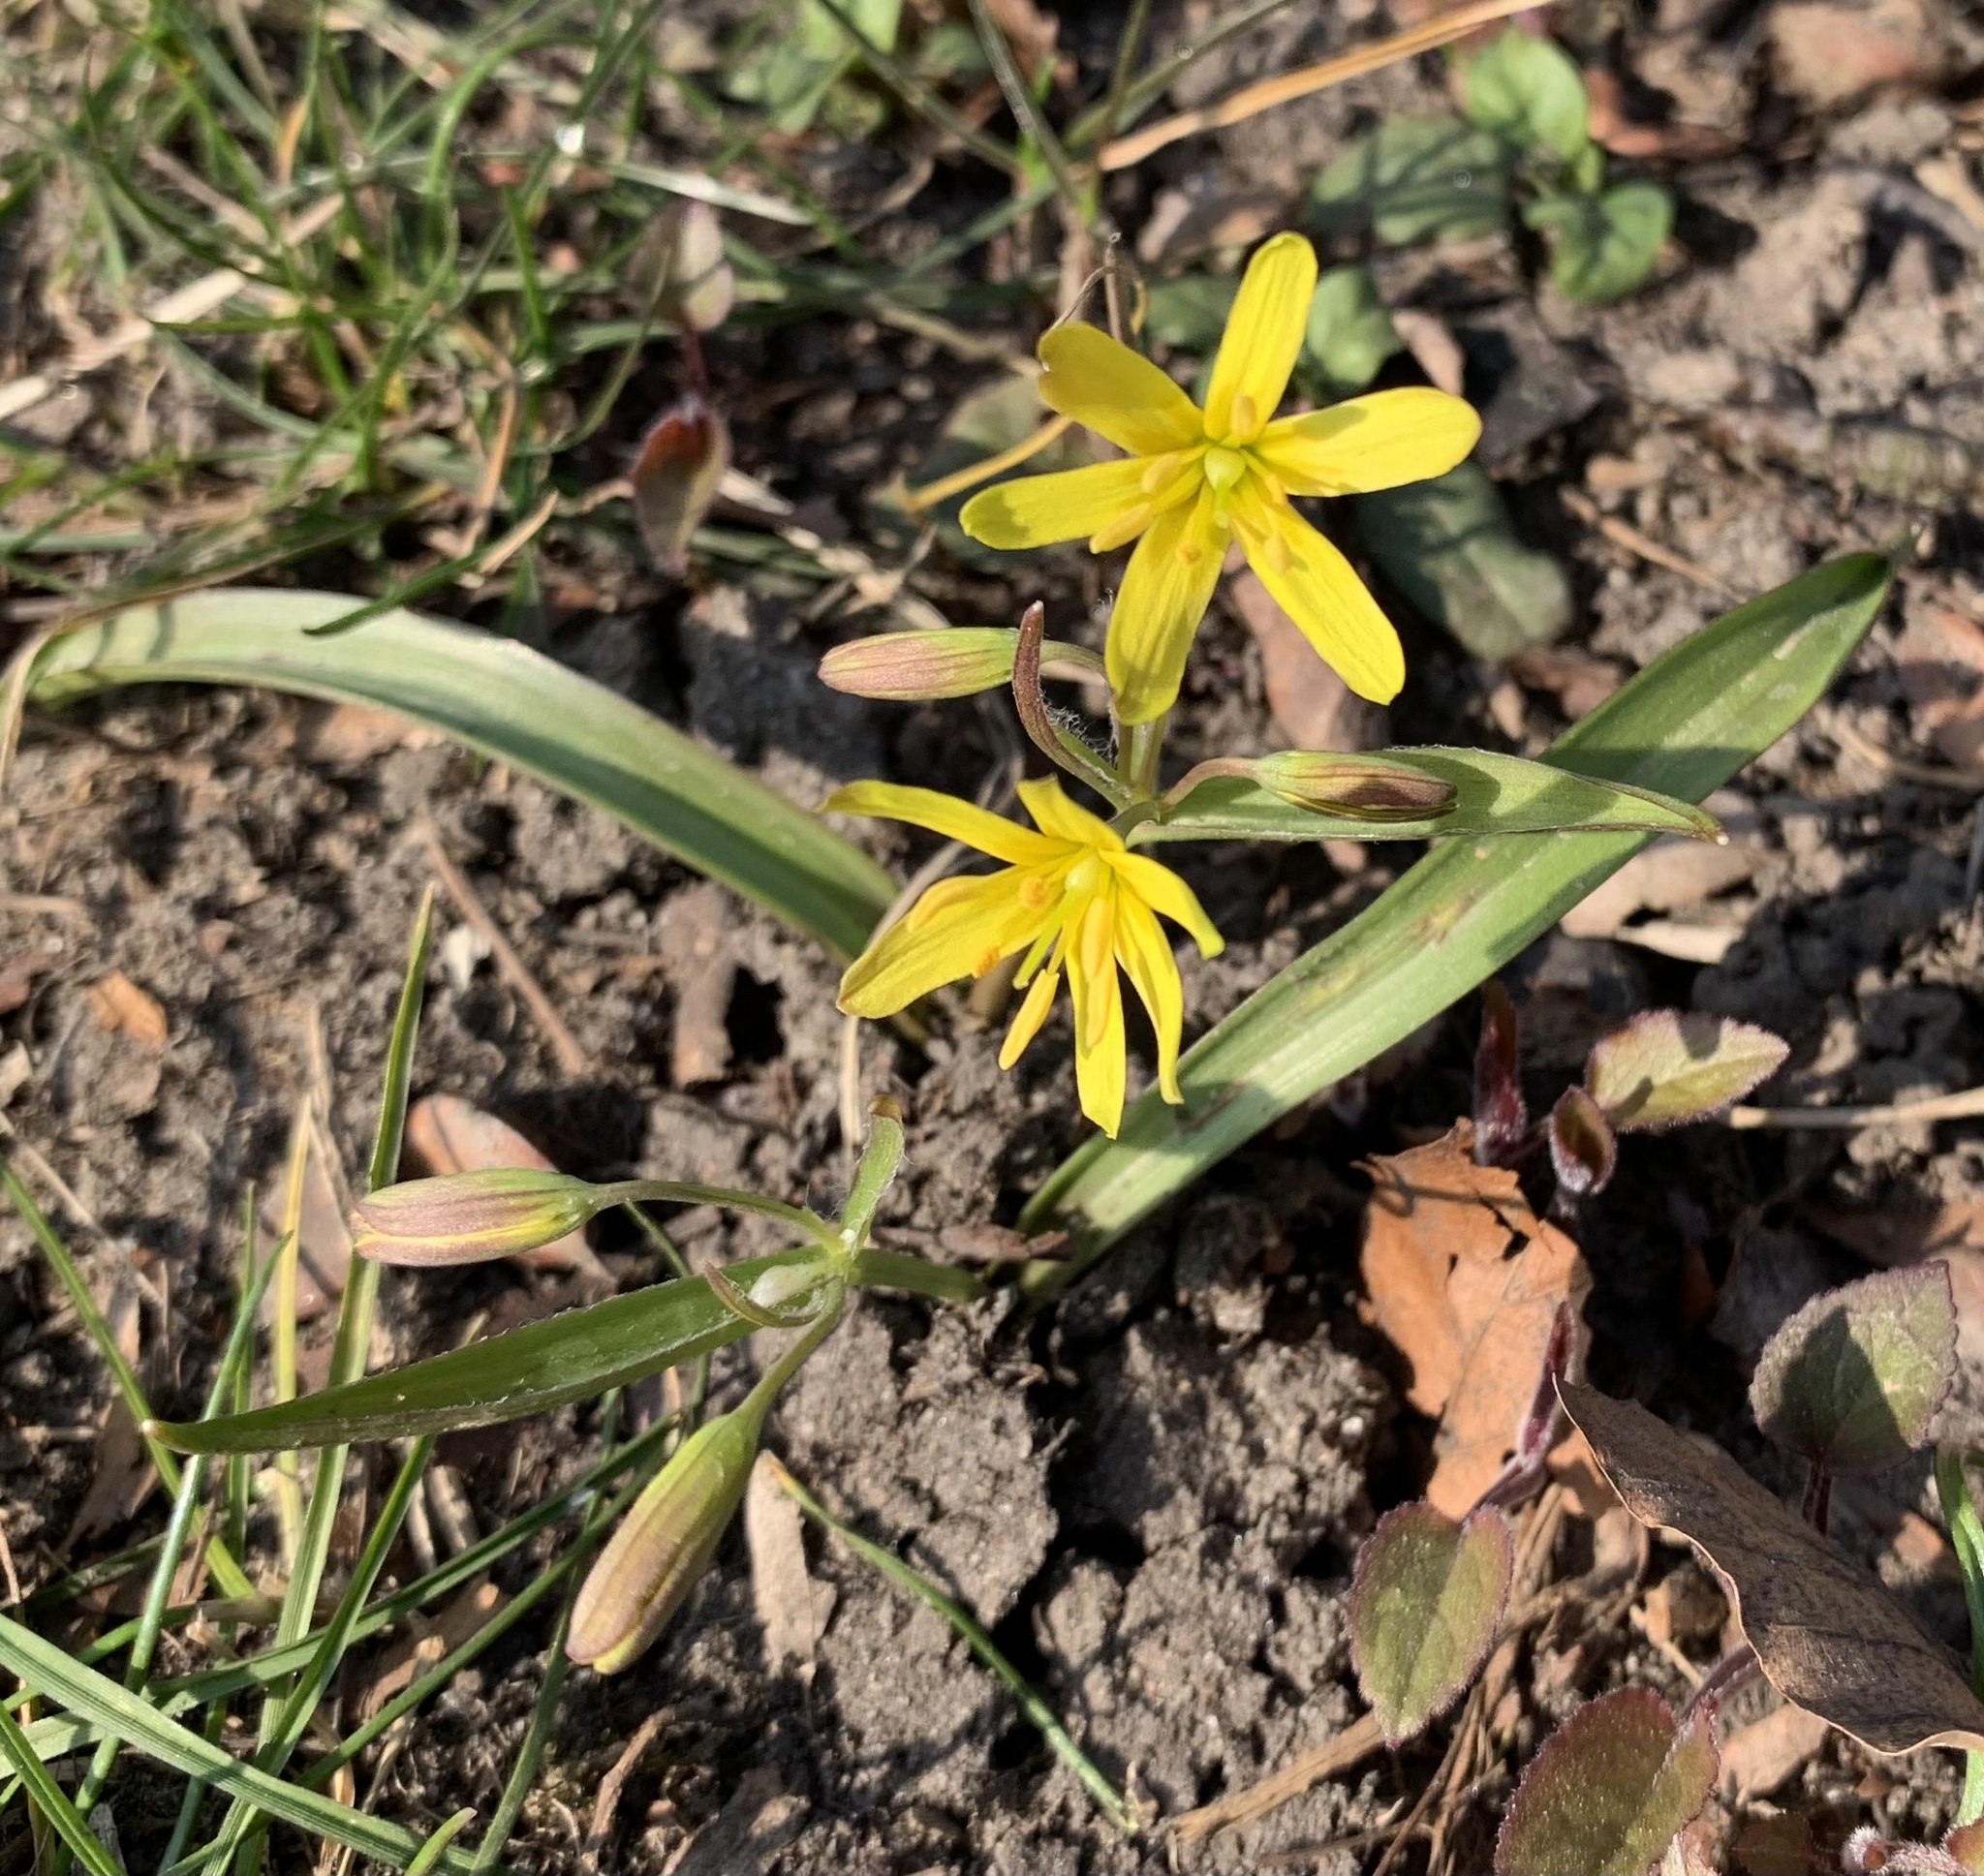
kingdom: Plantae
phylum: Tracheophyta
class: Liliopsida
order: Liliales
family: Liliaceae
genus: Gagea
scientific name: Gagea lutea
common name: Yellow star-of-bethlehem
